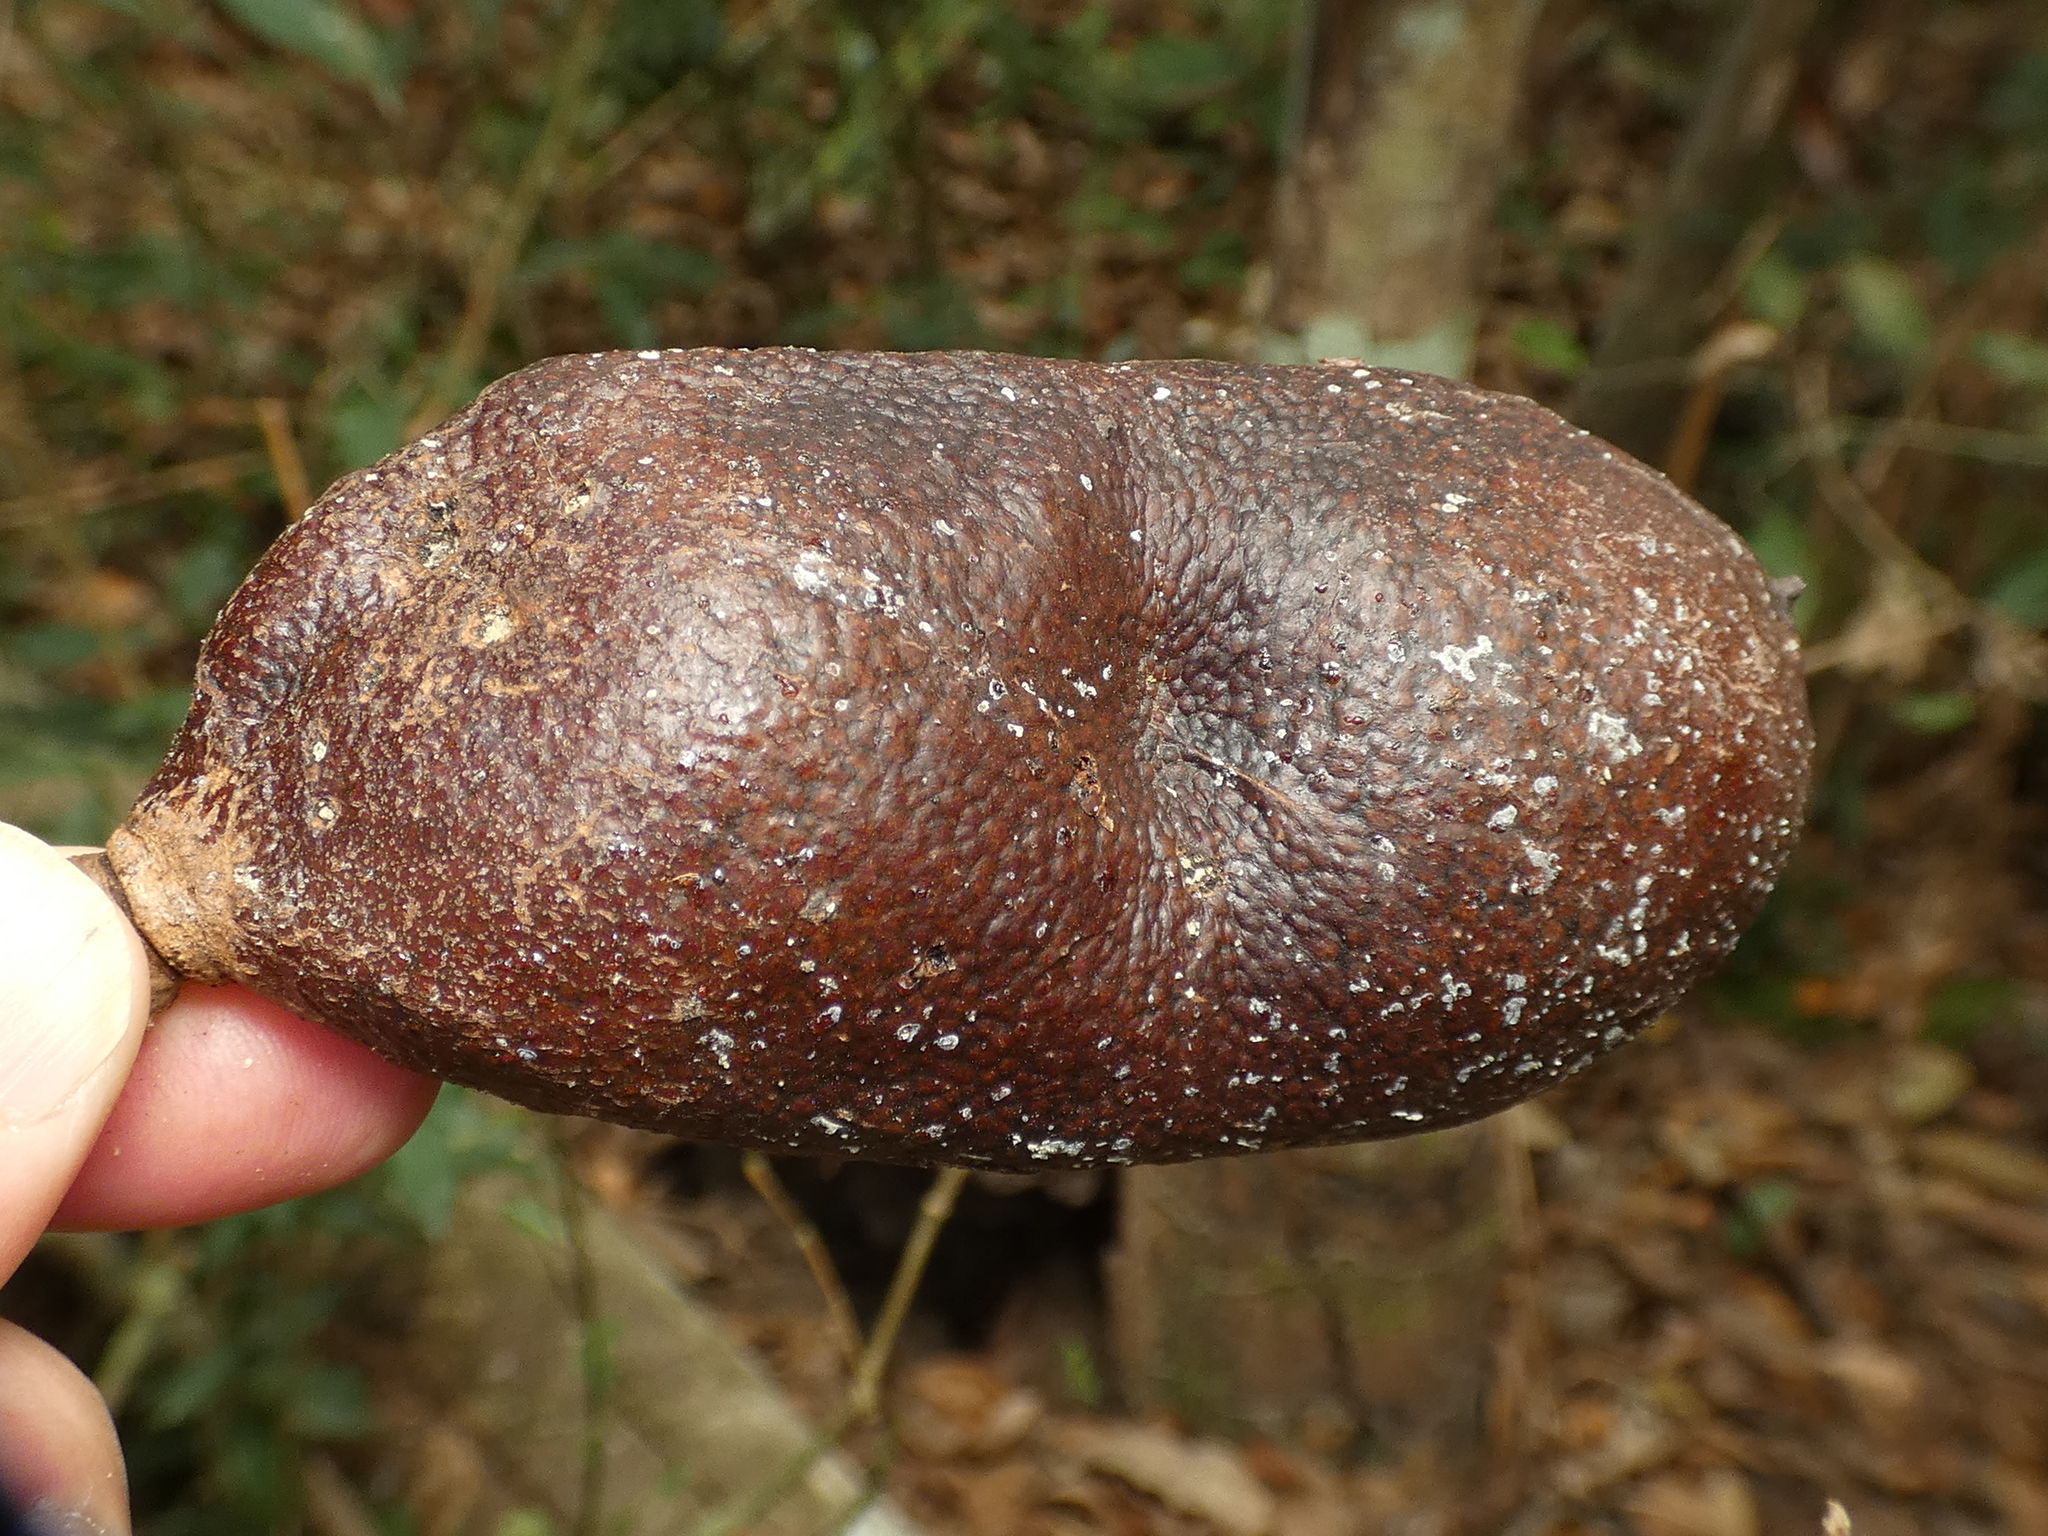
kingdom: Plantae
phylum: Tracheophyta
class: Magnoliopsida
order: Fabales
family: Fabaceae
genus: Hymenaea
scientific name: Hymenaea
